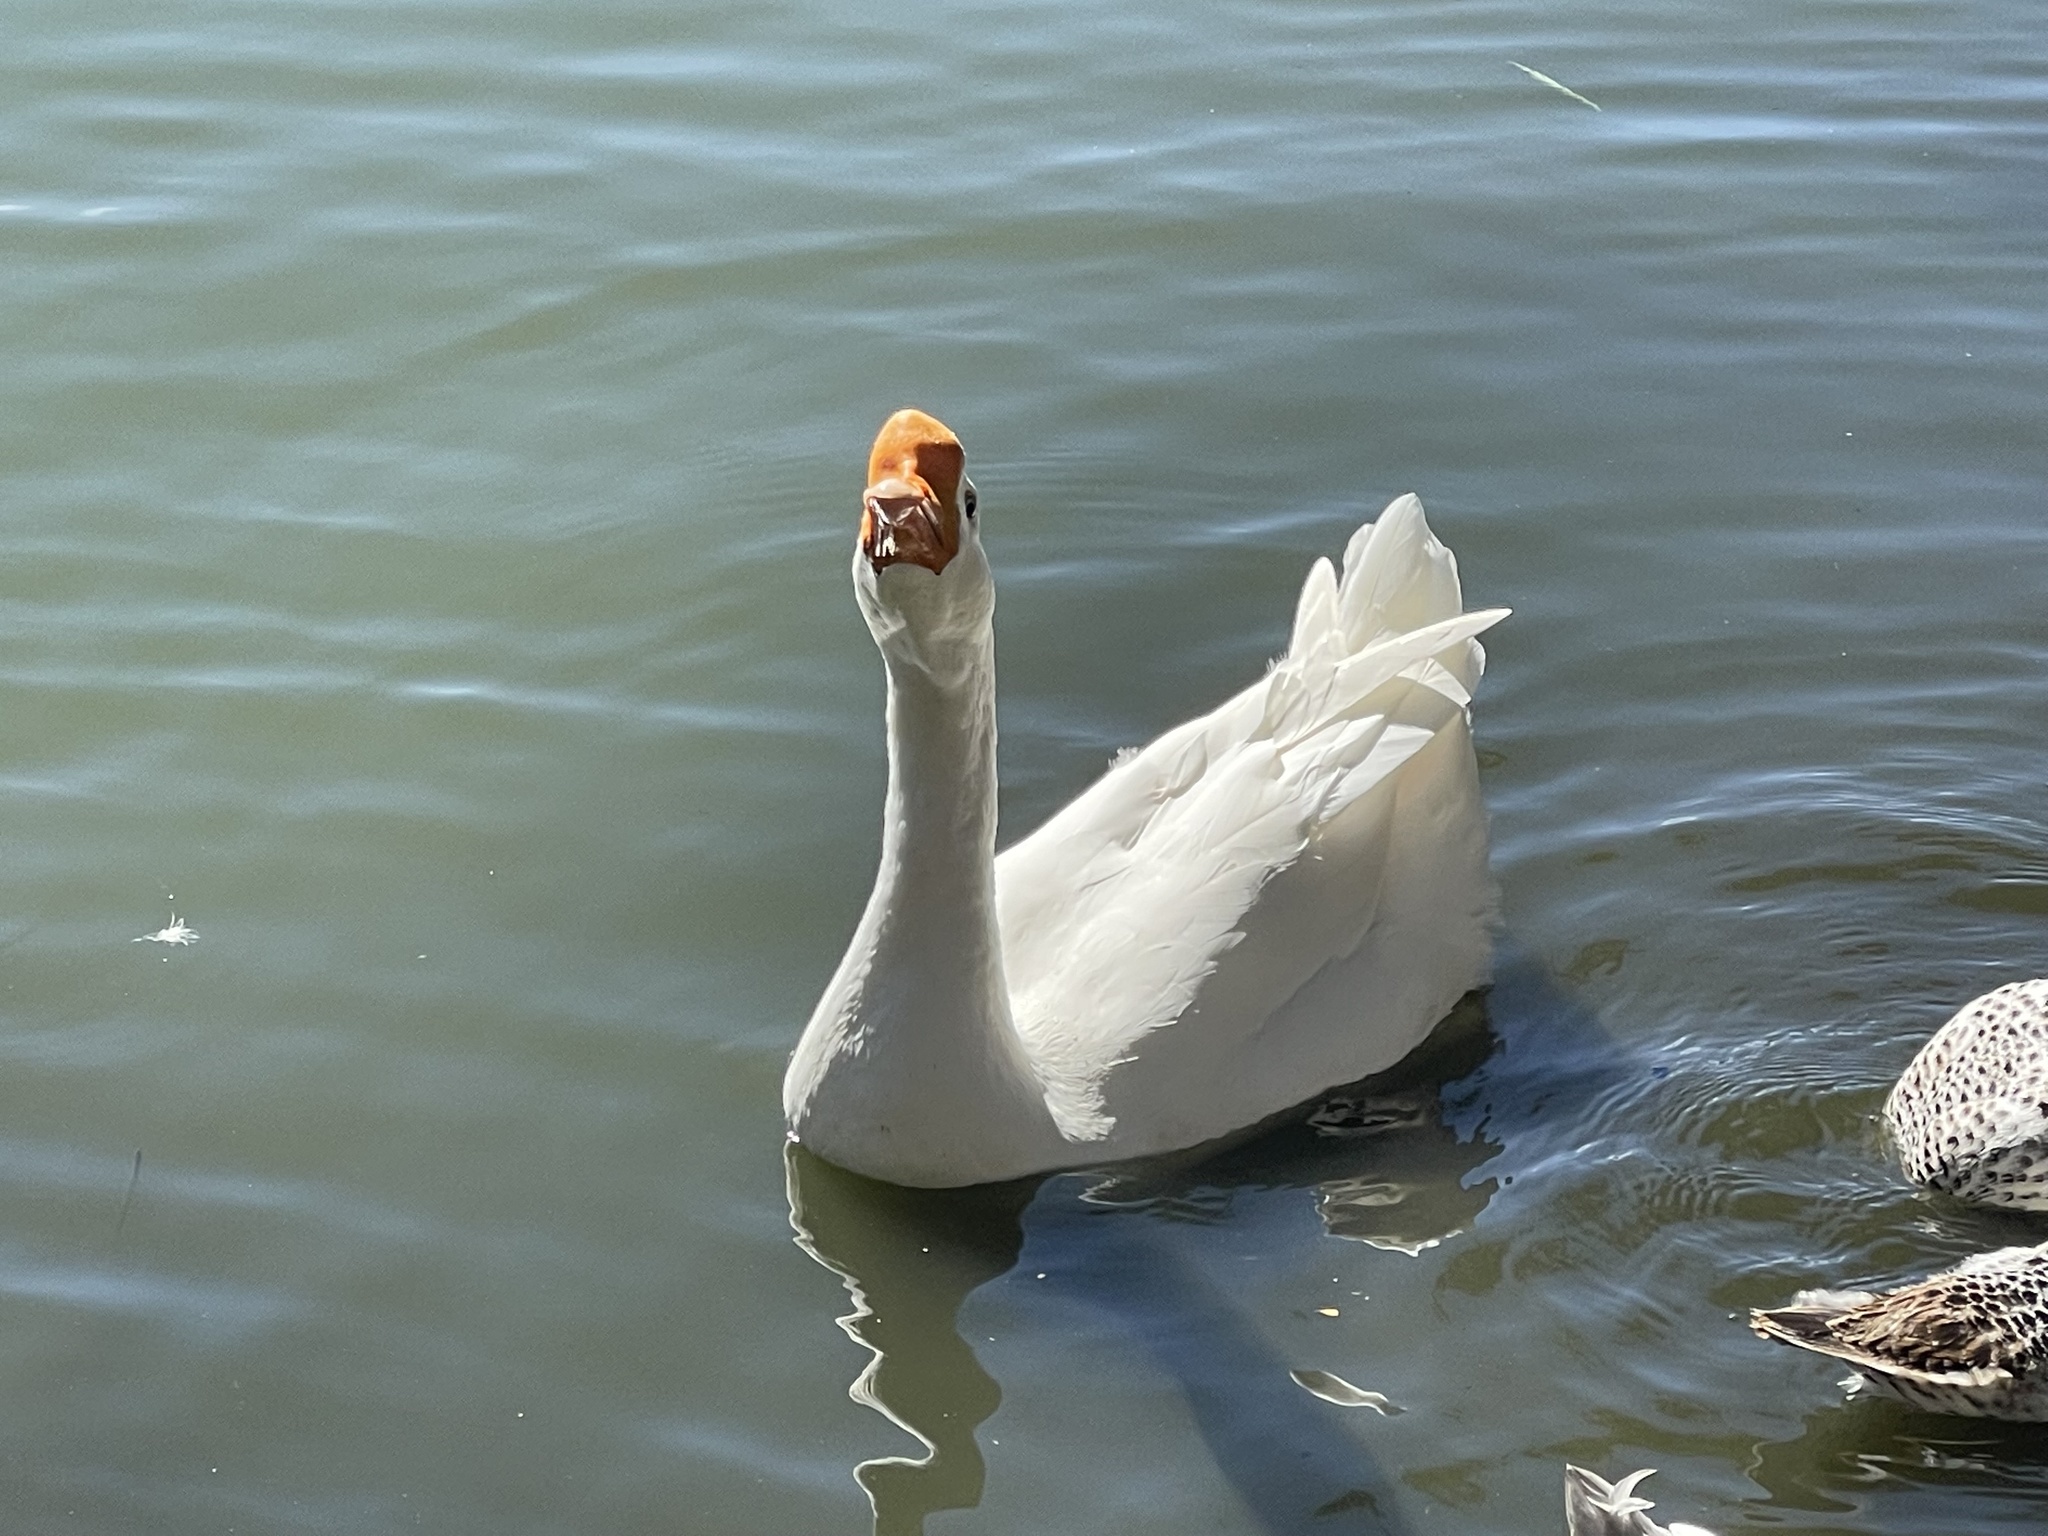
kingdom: Animalia
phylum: Chordata
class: Aves
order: Anseriformes
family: Anatidae
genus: Anser
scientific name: Anser cygnoides
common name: Swan goose
